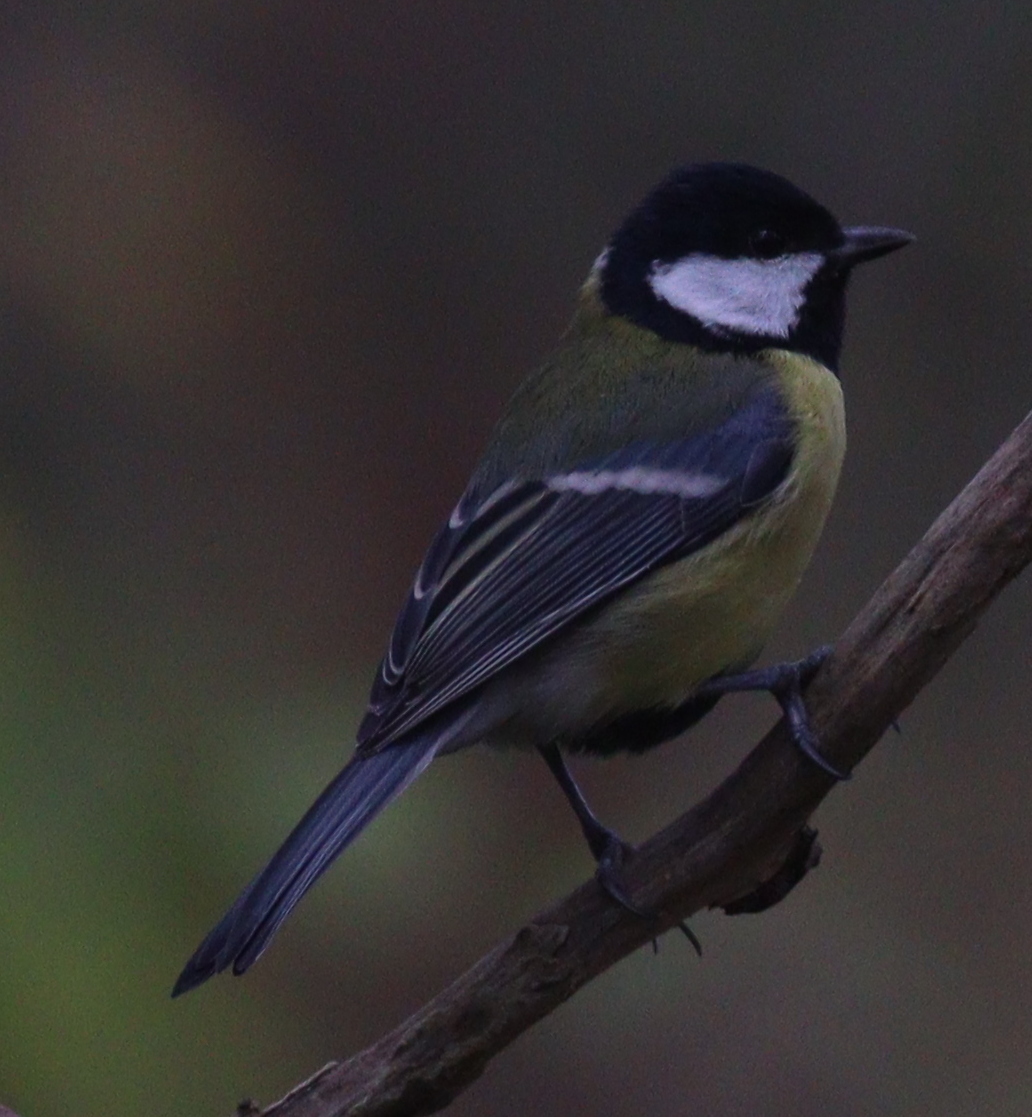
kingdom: Animalia
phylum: Chordata
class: Aves
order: Passeriformes
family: Paridae
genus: Parus
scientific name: Parus major
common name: Great tit
